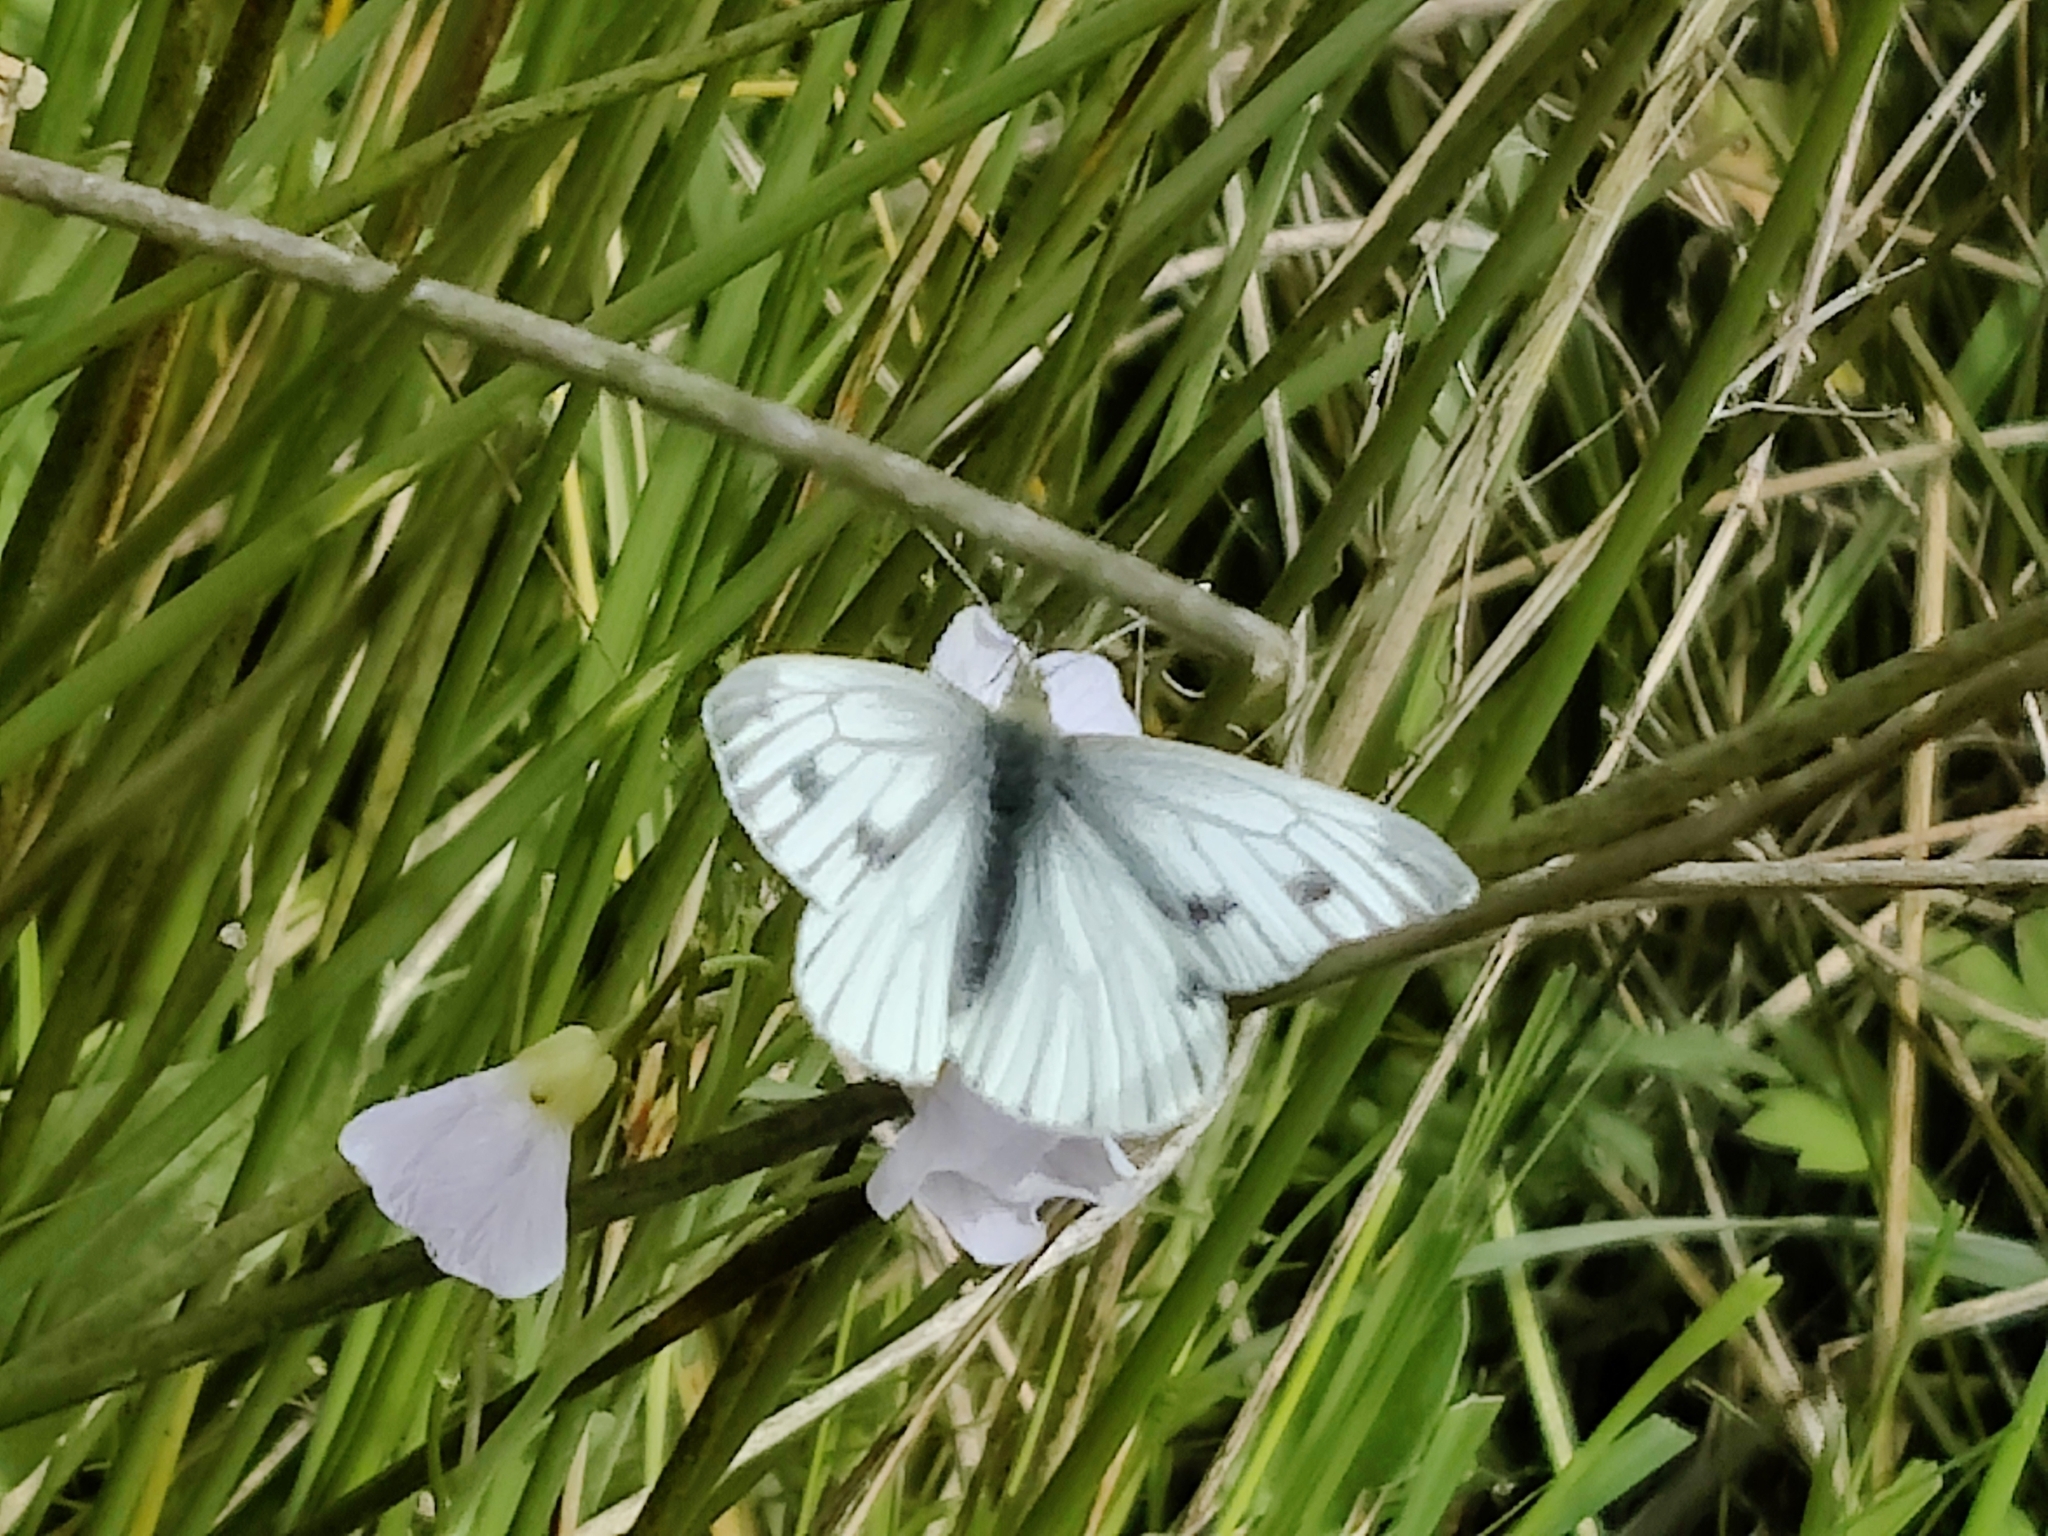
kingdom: Animalia
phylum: Arthropoda
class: Insecta
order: Lepidoptera
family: Pieridae
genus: Pieris
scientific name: Pieris napi
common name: Green-veined white
